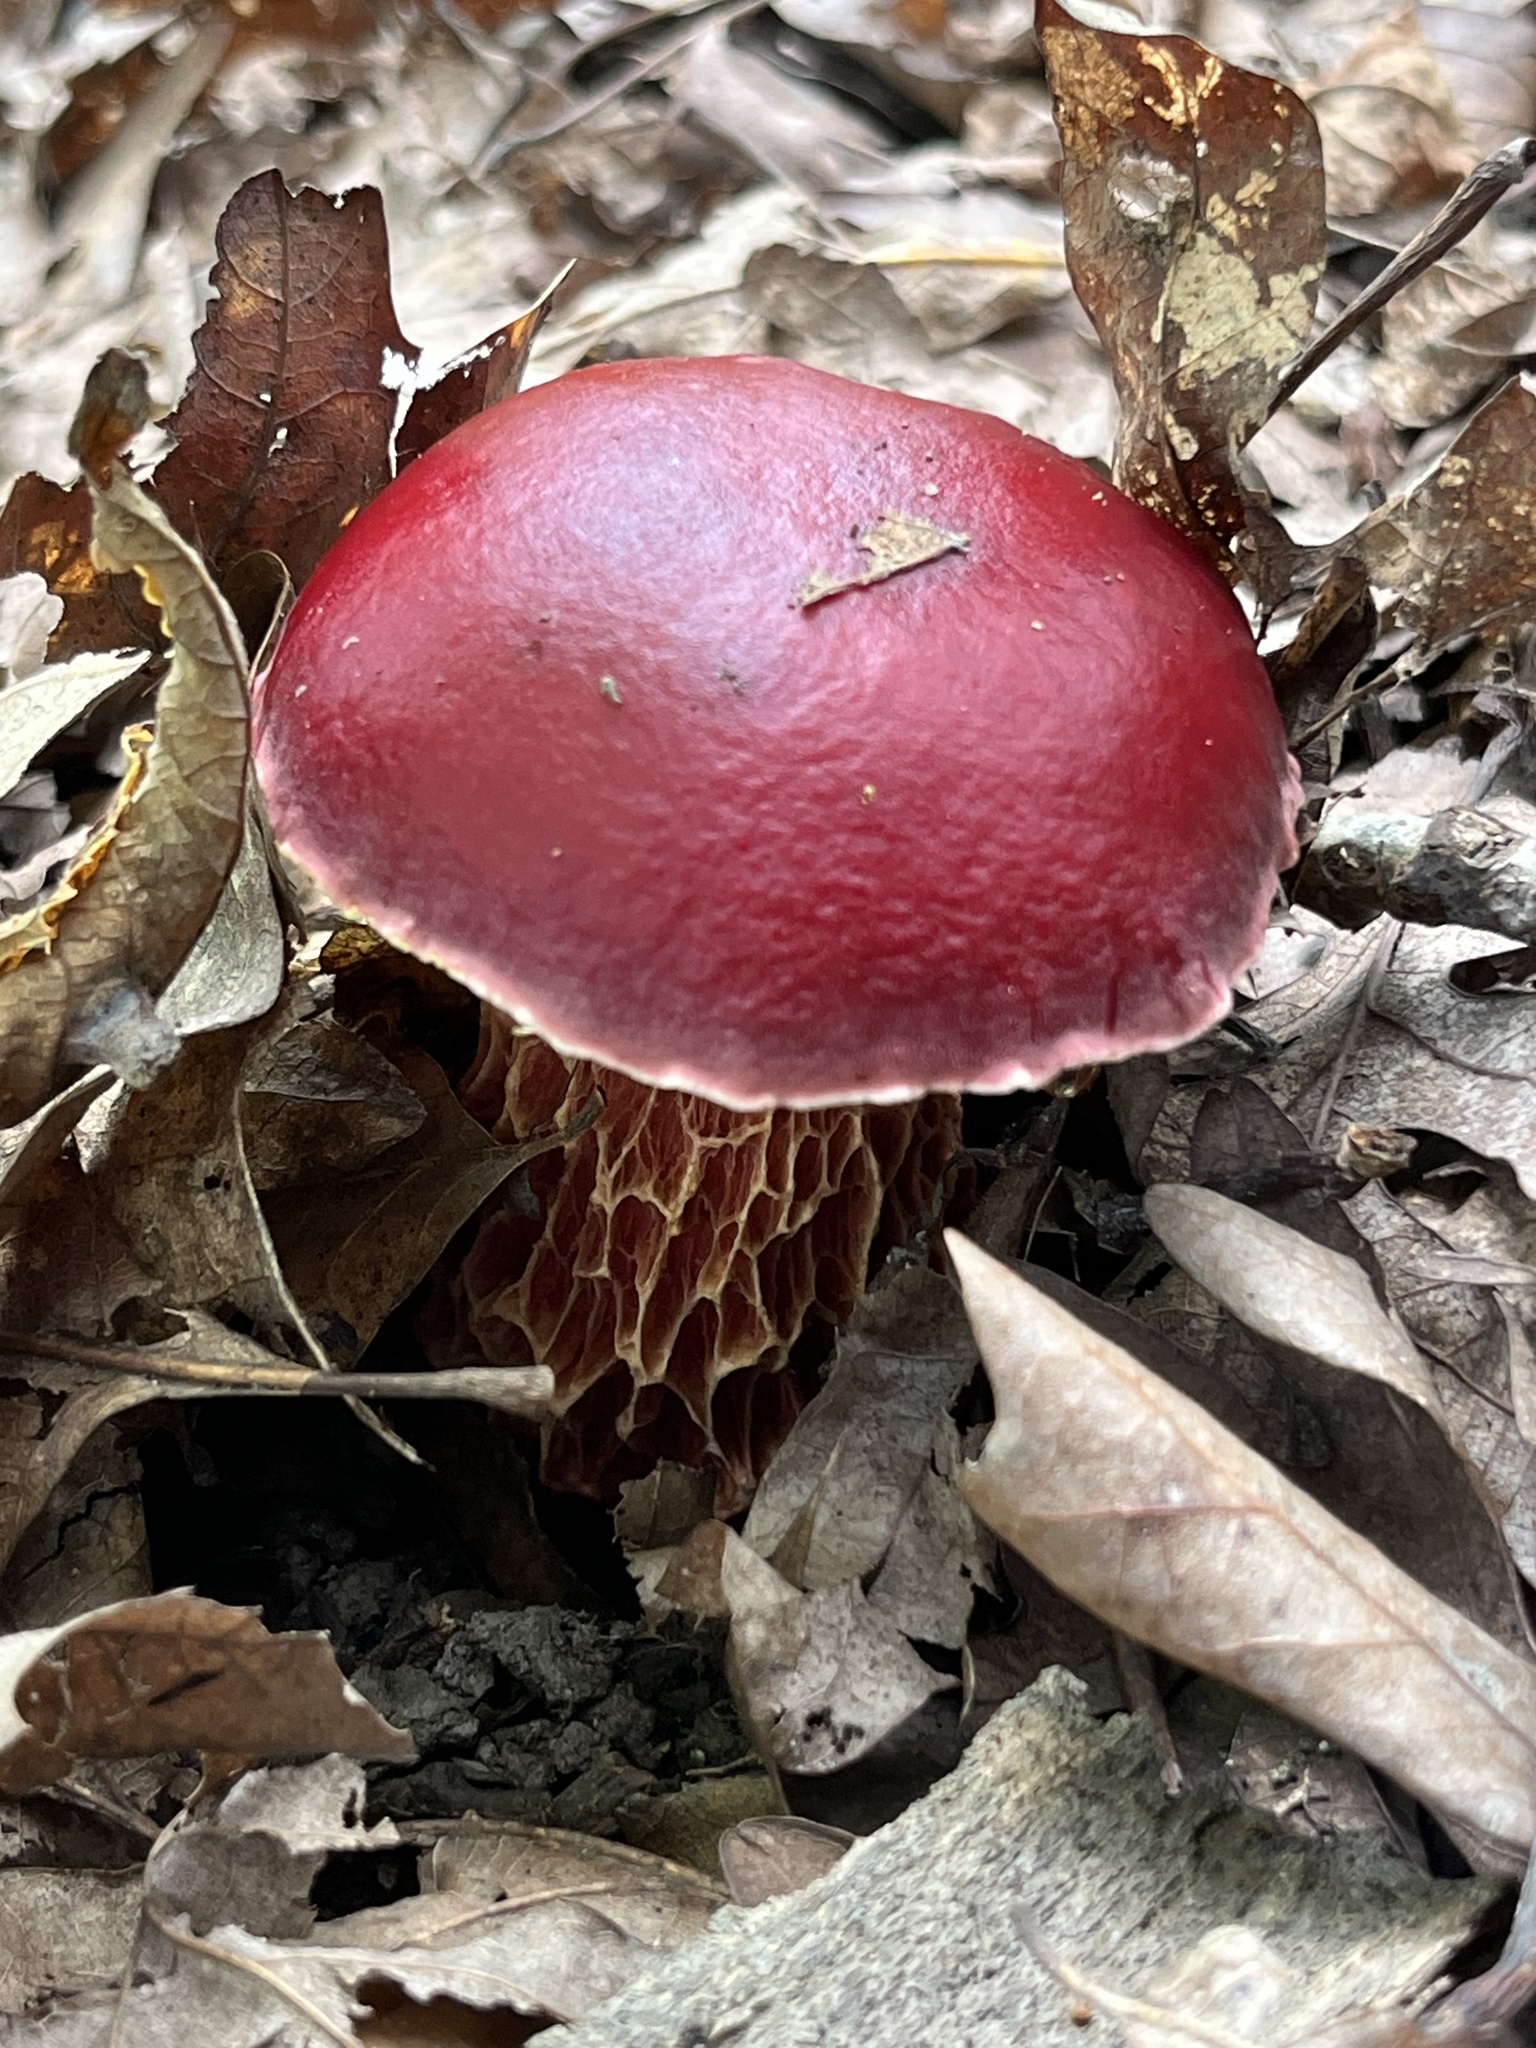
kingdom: Fungi
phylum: Basidiomycota
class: Agaricomycetes
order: Boletales
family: Boletaceae
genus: Butyriboletus
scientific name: Butyriboletus frostii
